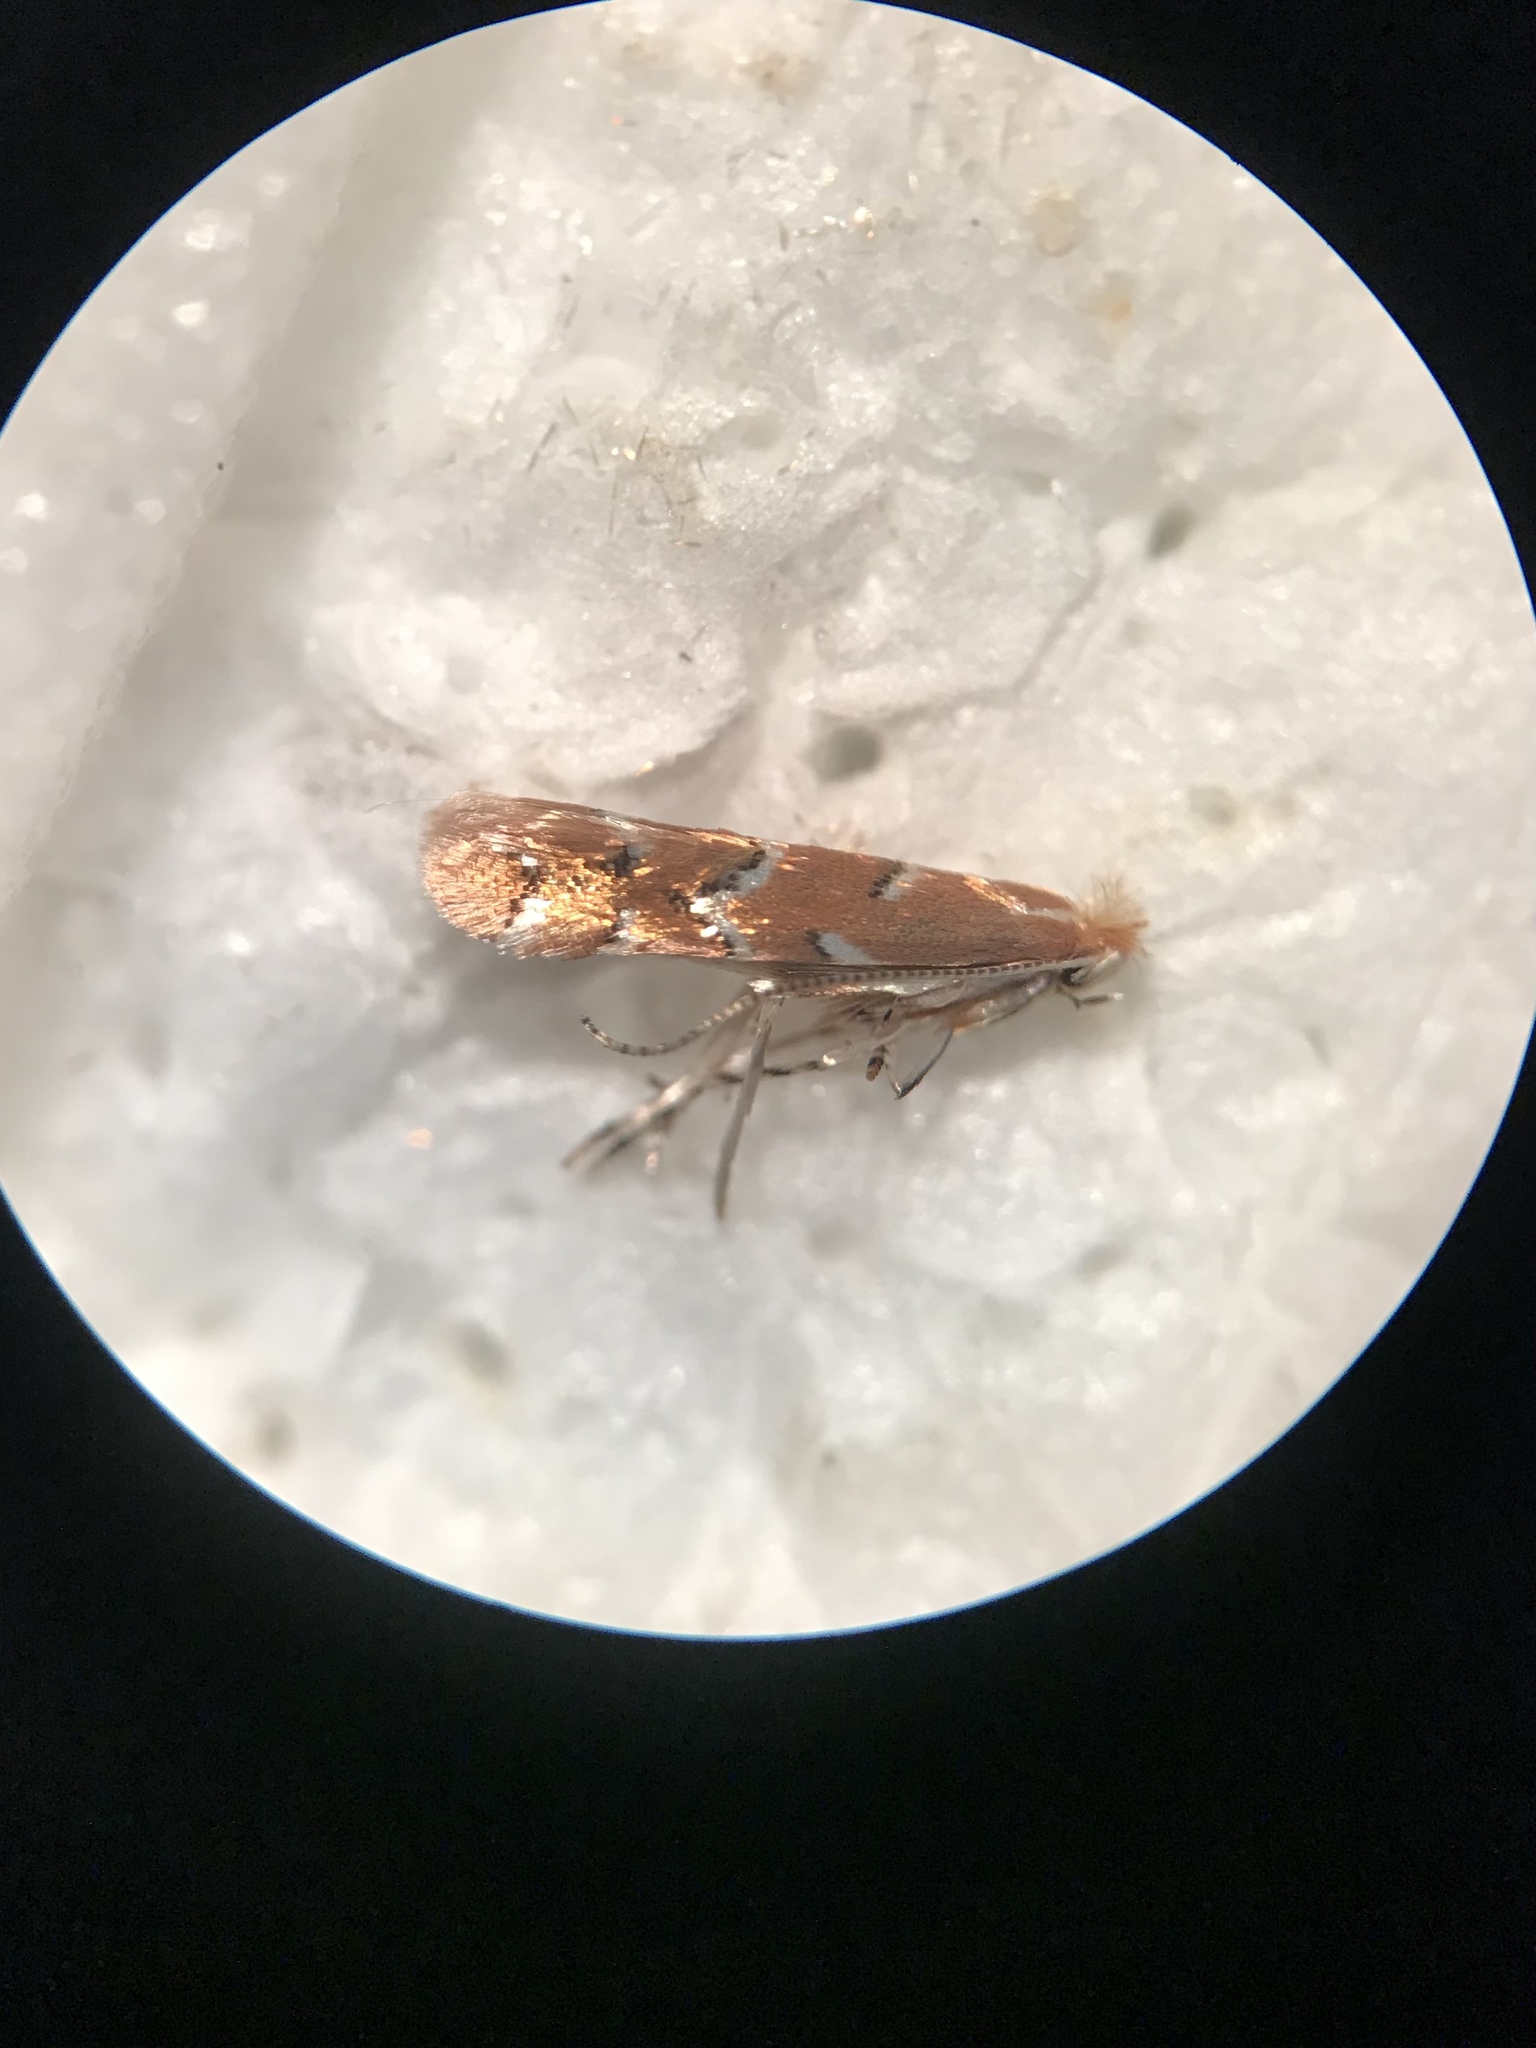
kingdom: Animalia
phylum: Arthropoda
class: Insecta
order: Lepidoptera
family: Gracillariidae
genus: Cameraria
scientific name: Cameraria fletcherella
